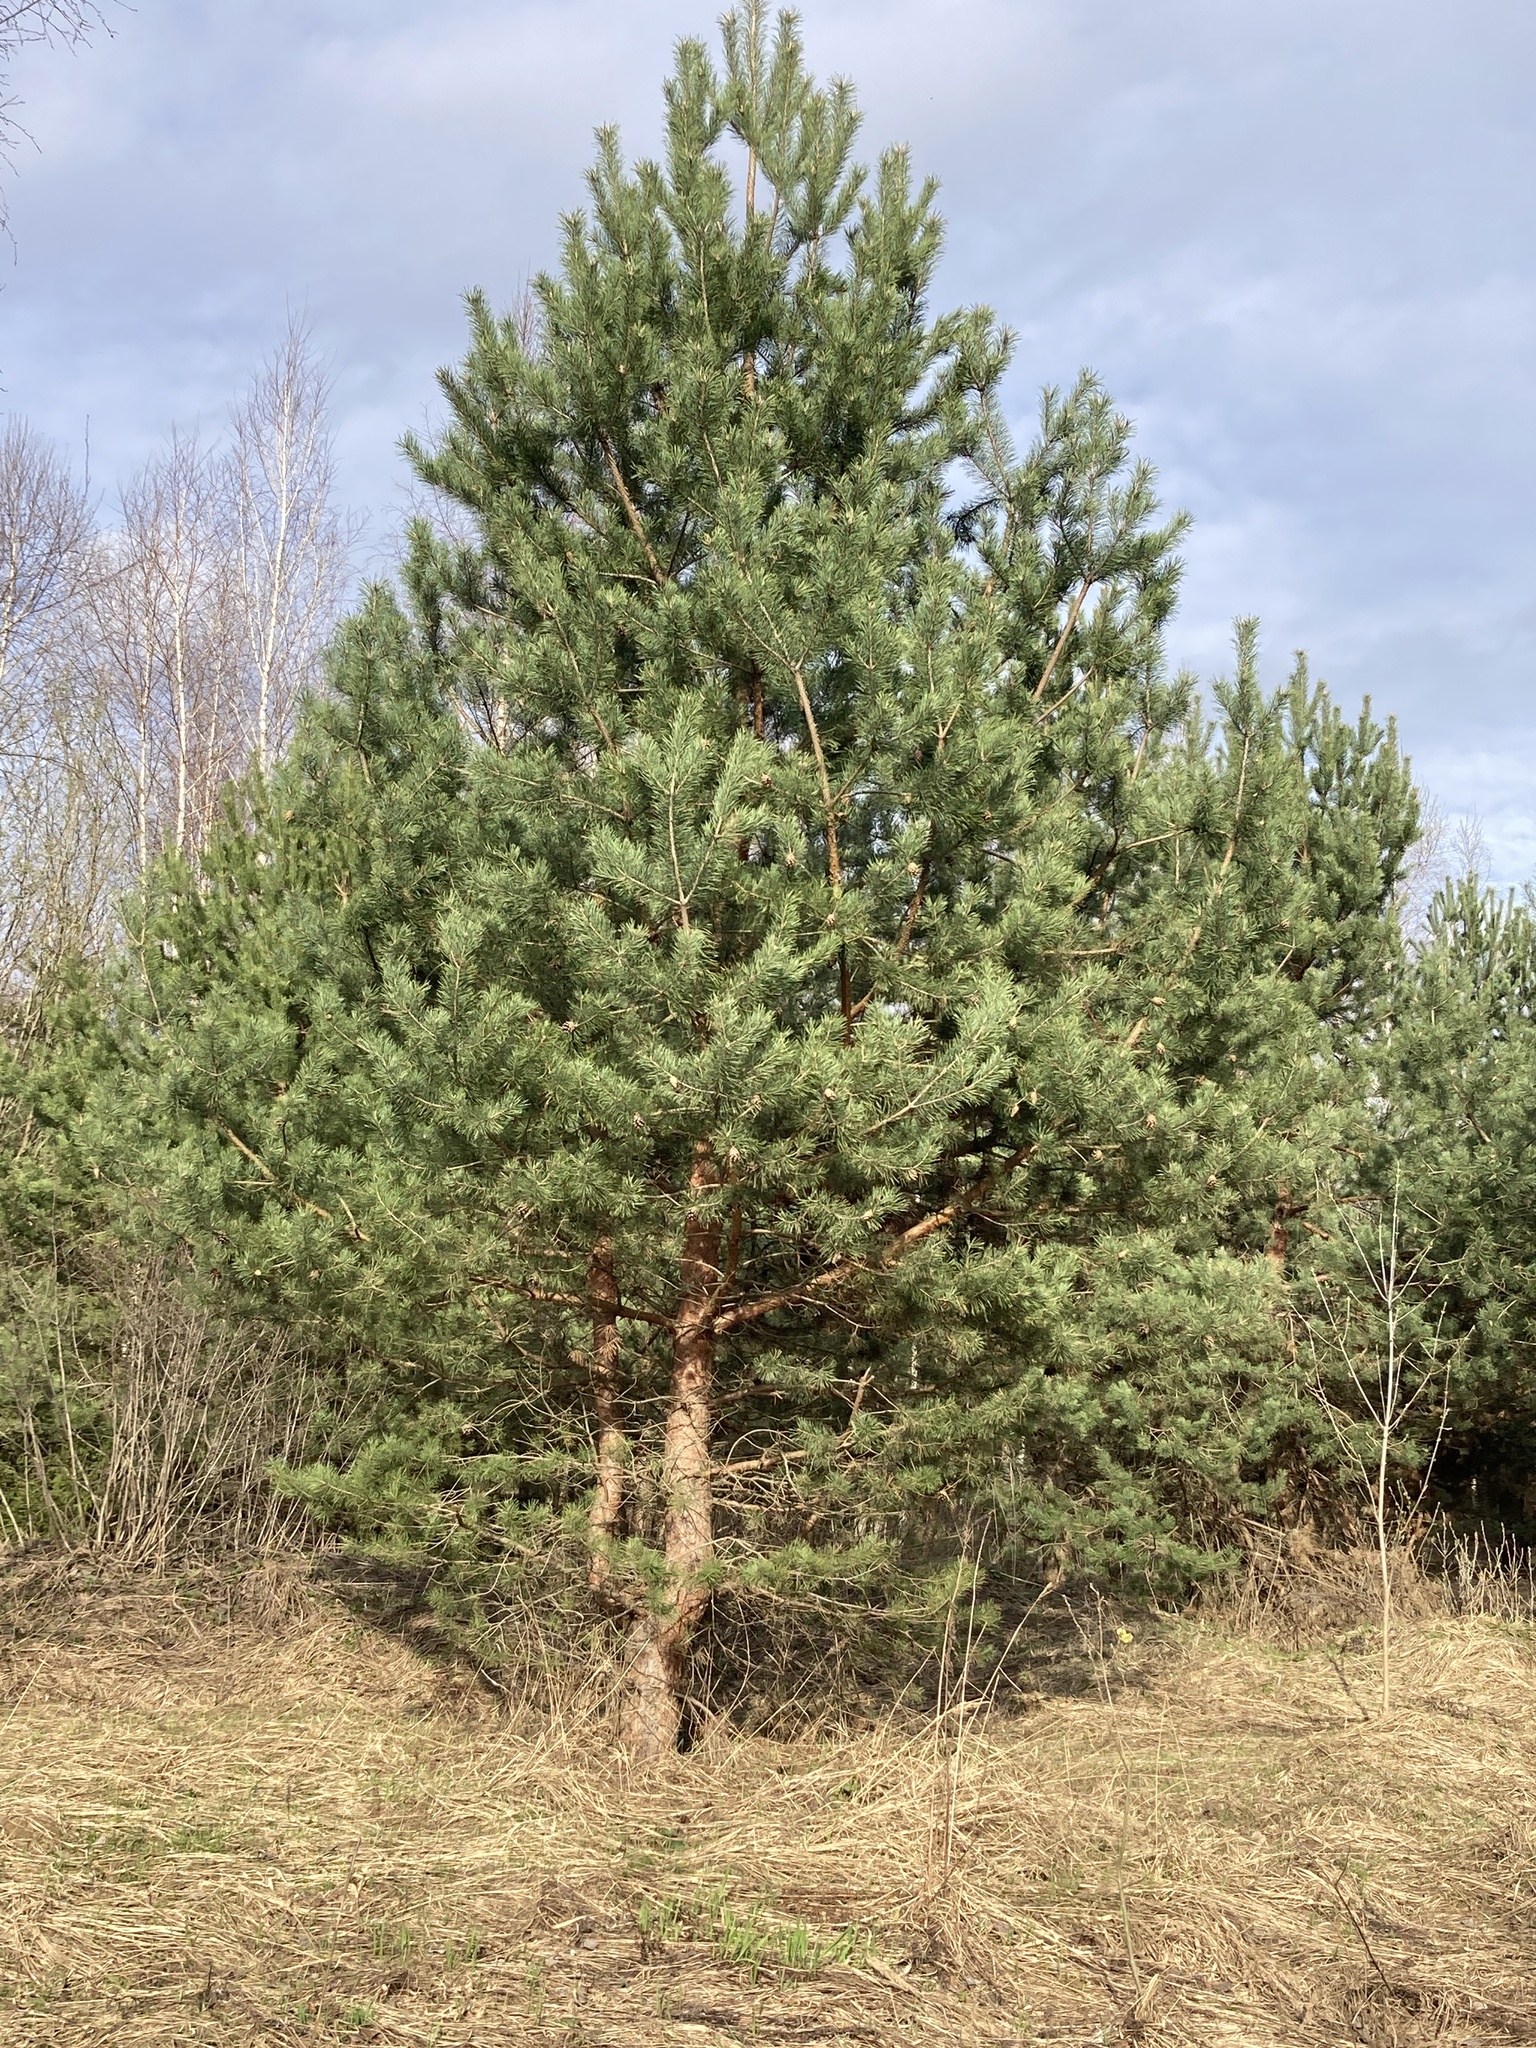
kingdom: Plantae
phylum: Tracheophyta
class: Pinopsida
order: Pinales
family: Pinaceae
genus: Pinus
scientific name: Pinus sylvestris
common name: Scots pine
